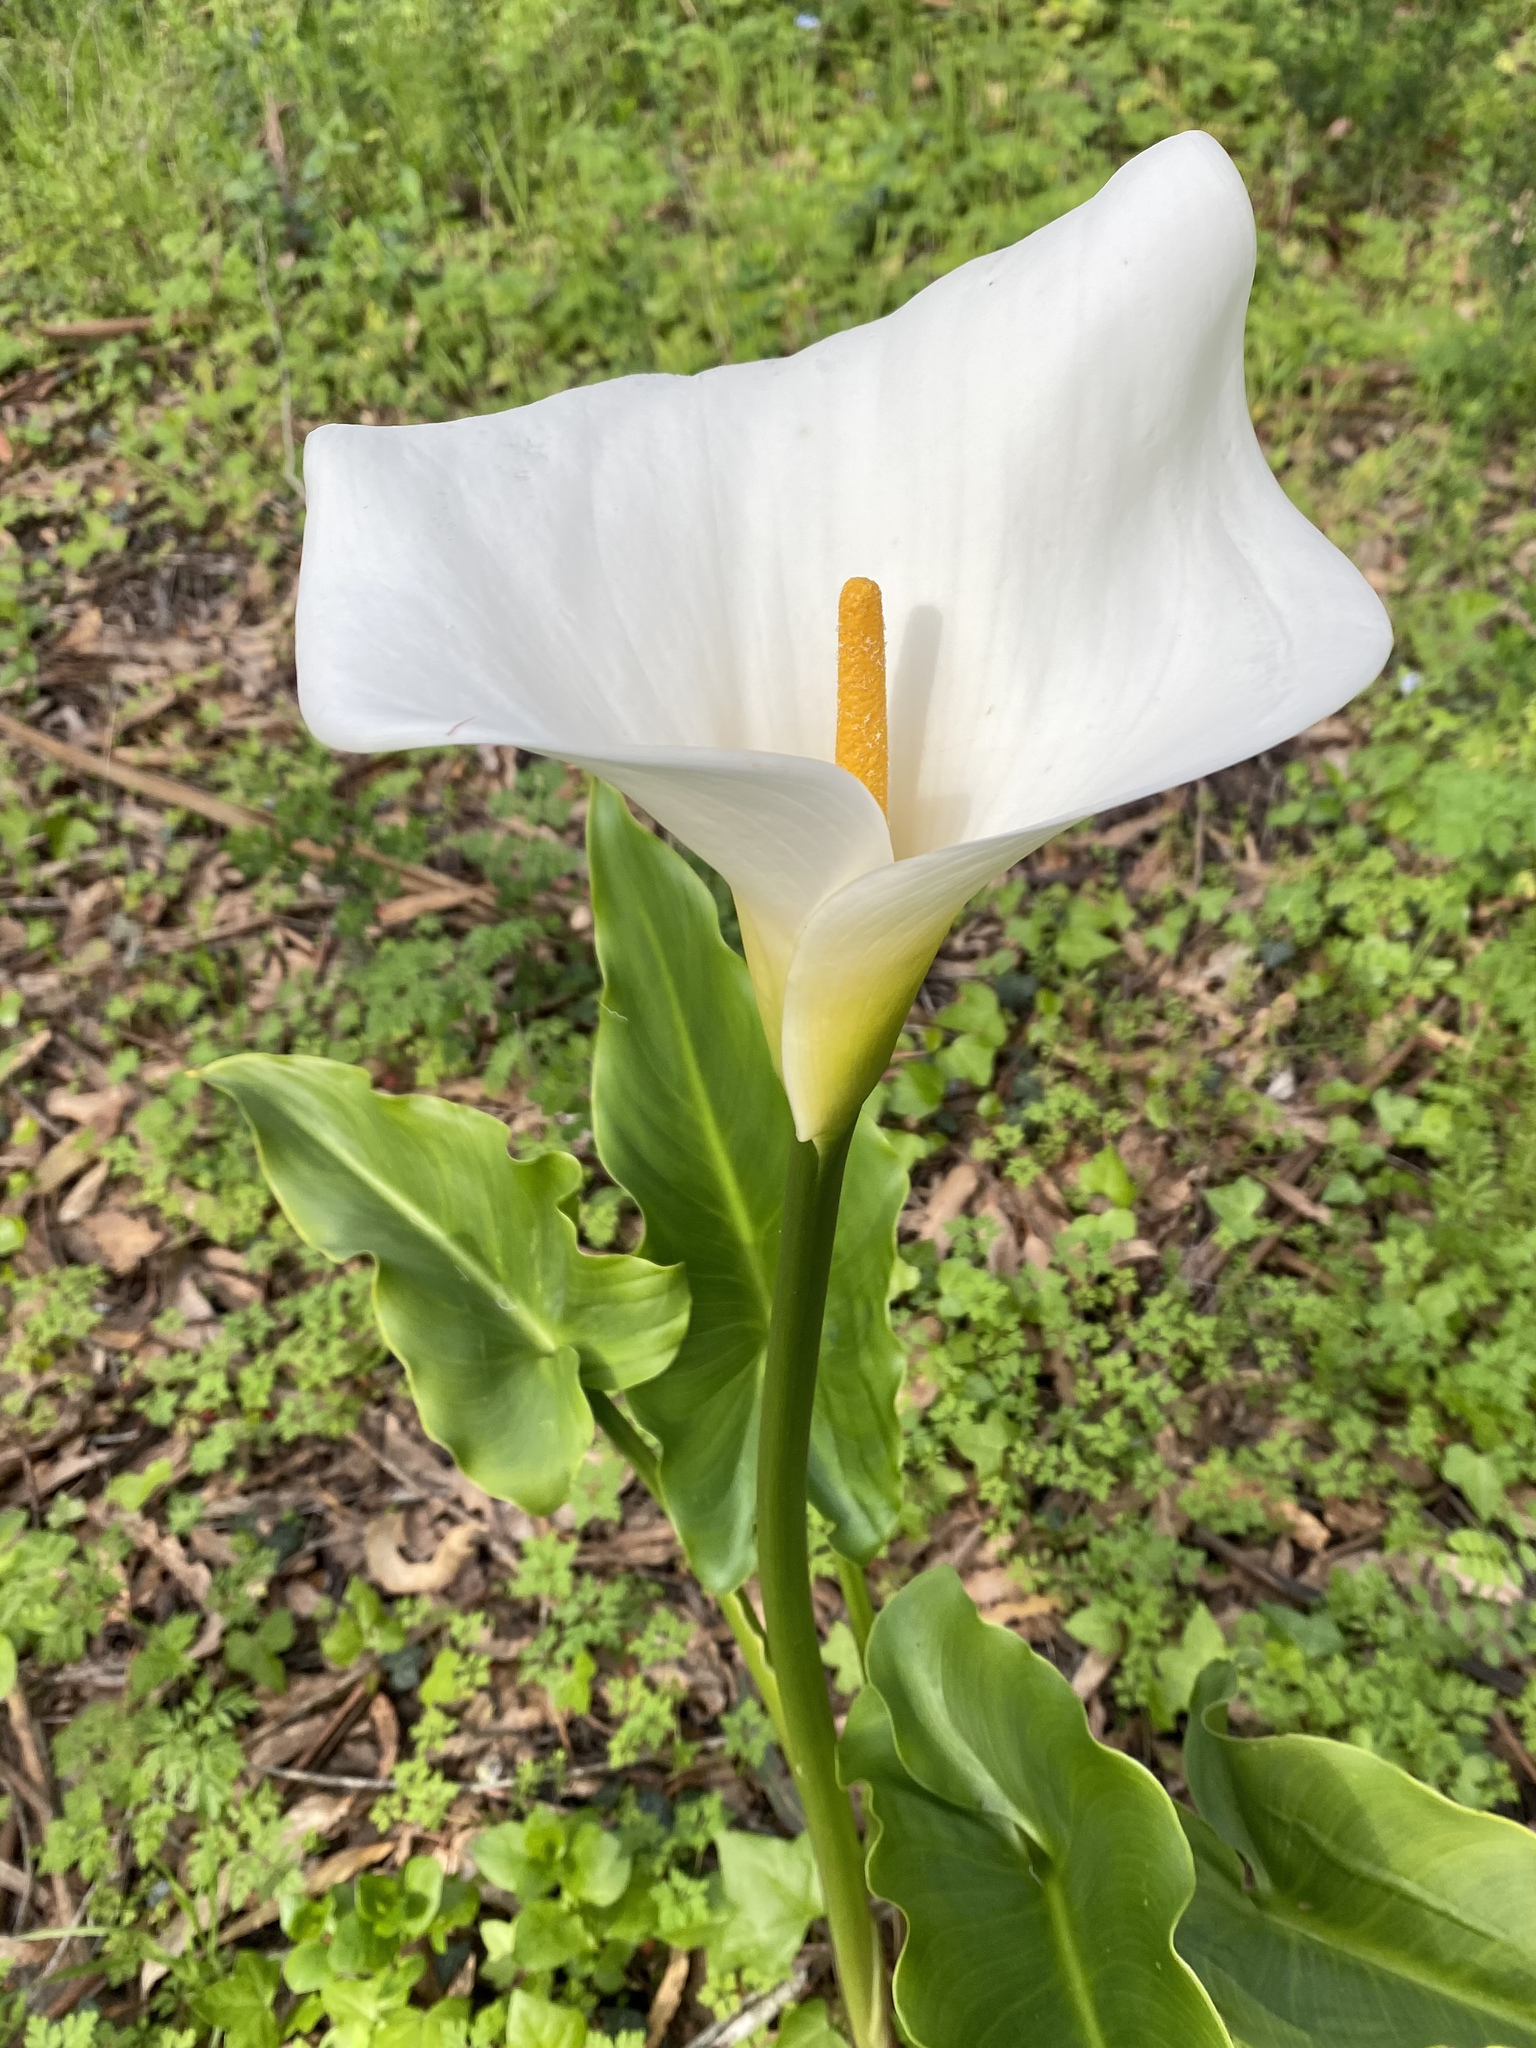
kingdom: Plantae
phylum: Tracheophyta
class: Liliopsida
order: Alismatales
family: Araceae
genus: Zantedeschia
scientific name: Zantedeschia aethiopica
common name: Altar-lily
